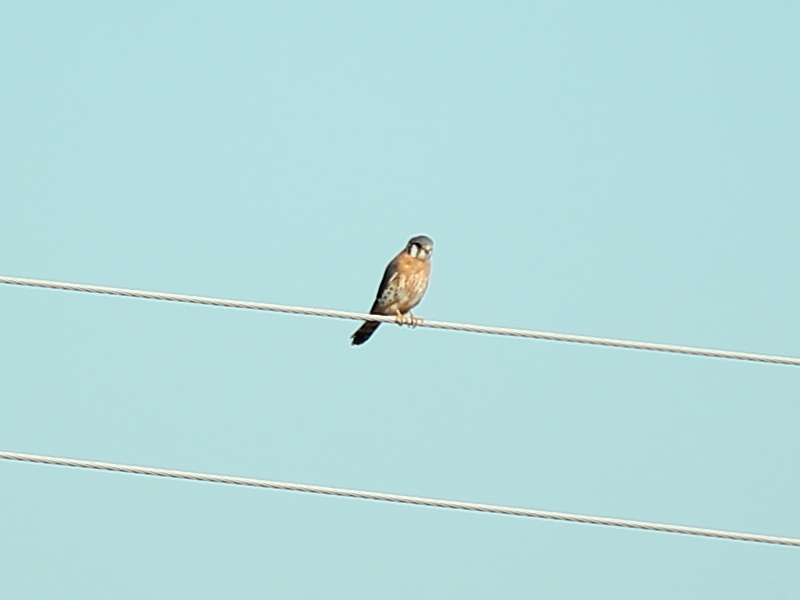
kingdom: Animalia
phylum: Chordata
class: Aves
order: Falconiformes
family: Falconidae
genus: Falco
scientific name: Falco sparverius
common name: American kestrel
